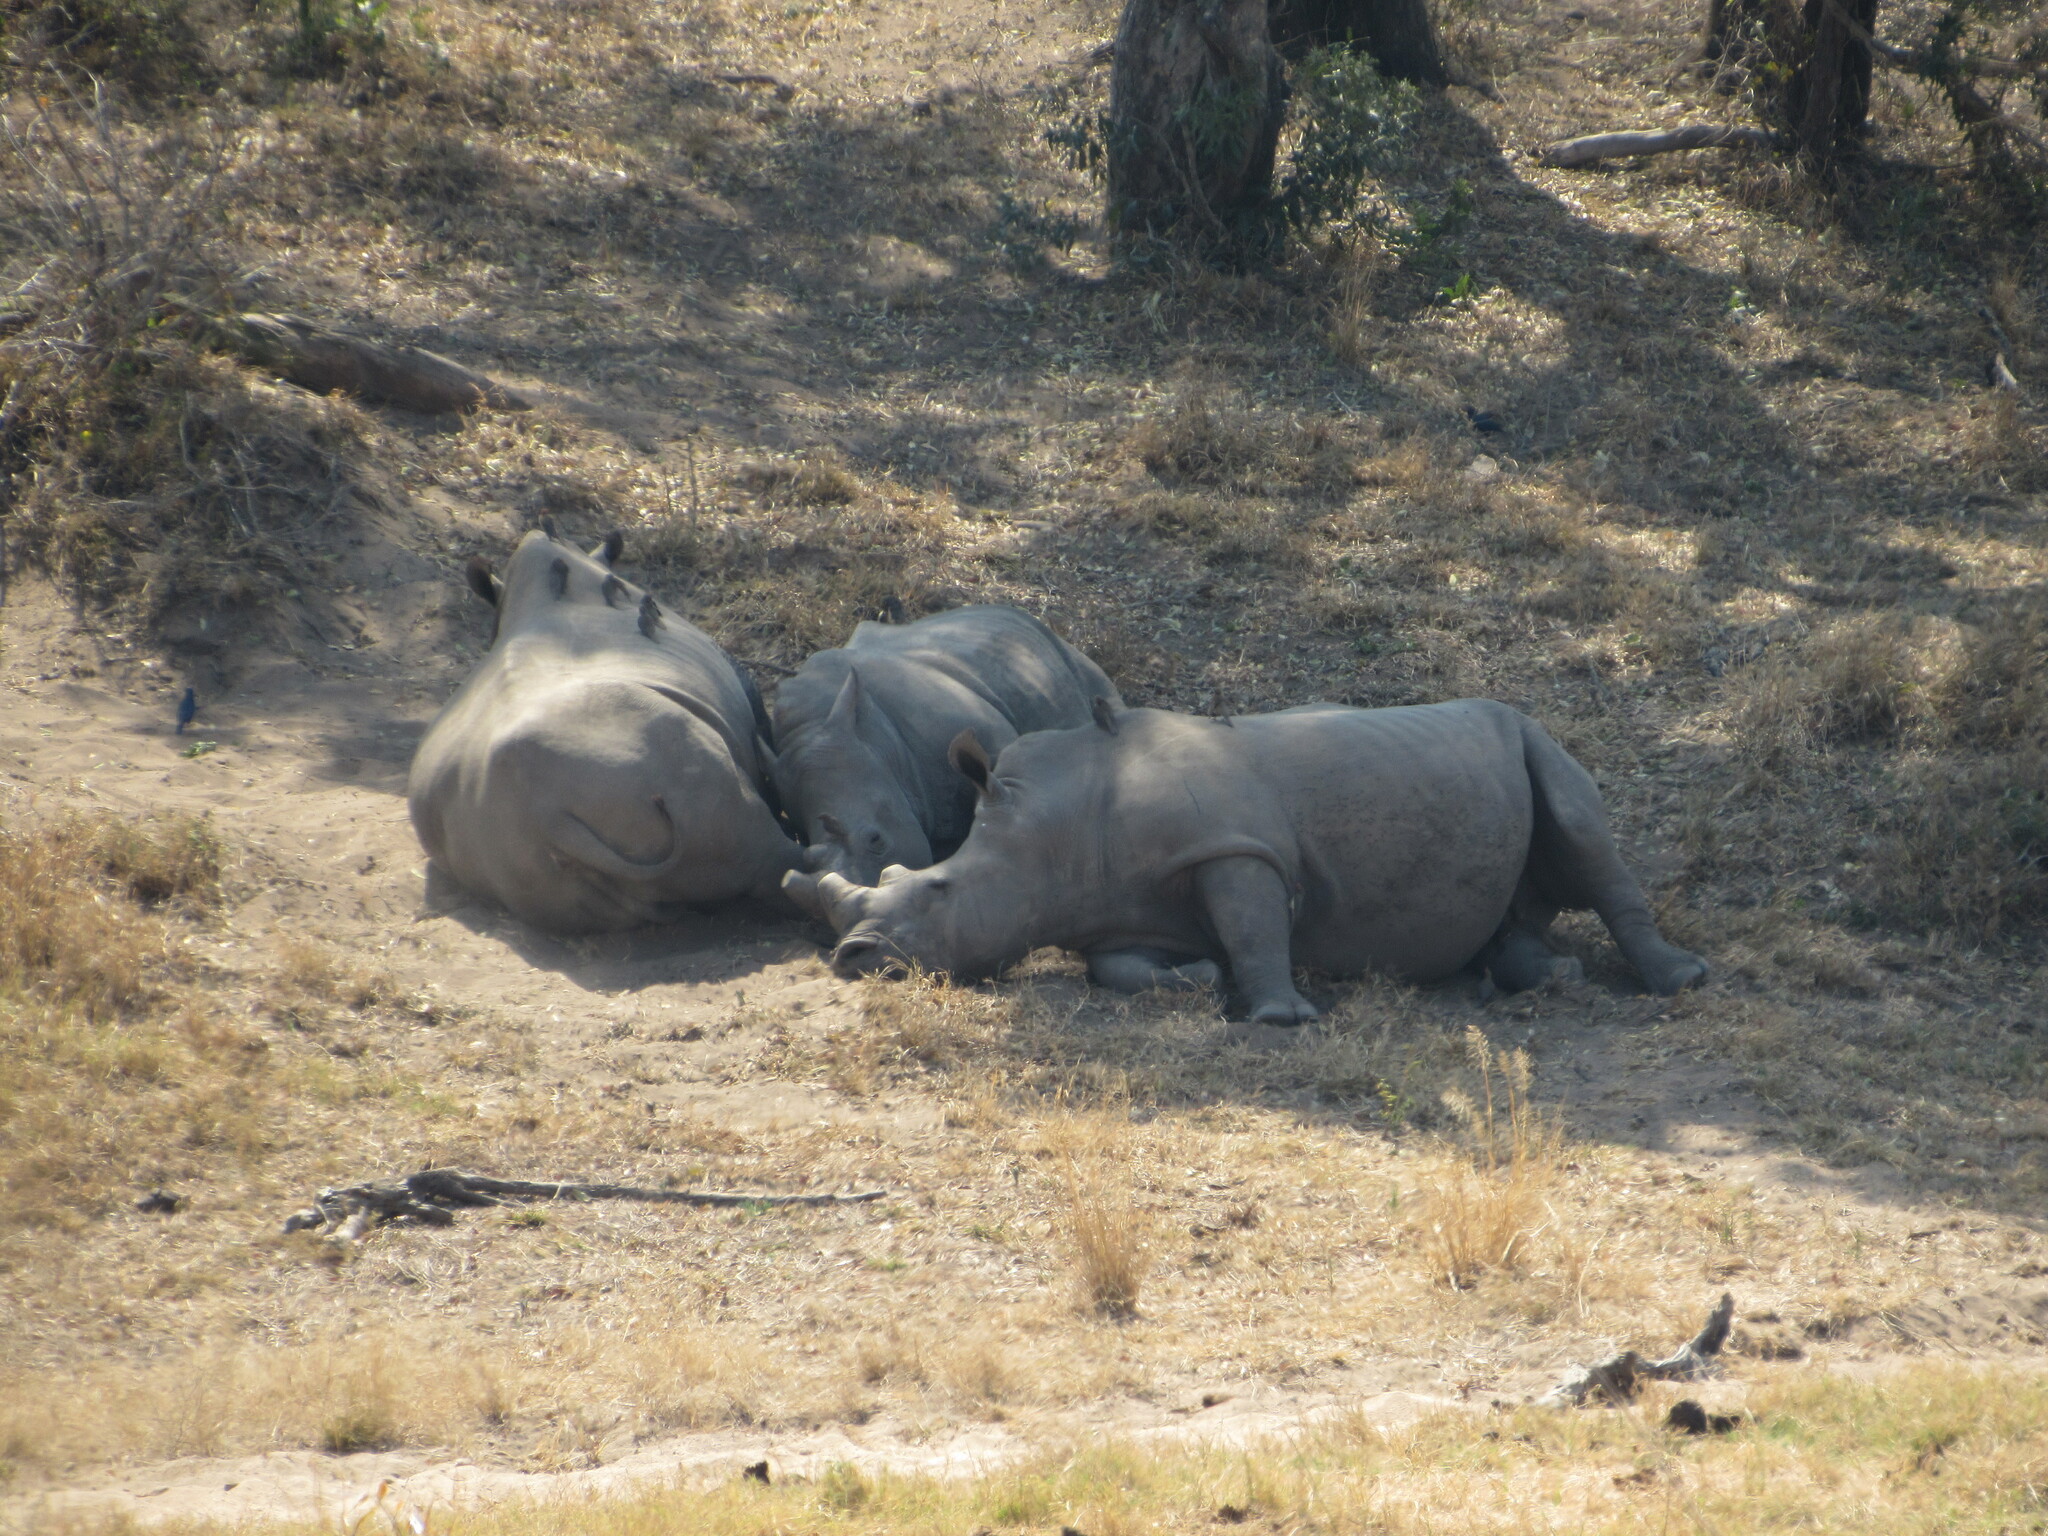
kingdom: Animalia
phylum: Chordata
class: Mammalia
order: Perissodactyla
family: Rhinocerotidae
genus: Ceratotherium
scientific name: Ceratotherium simum
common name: White rhinoceros
